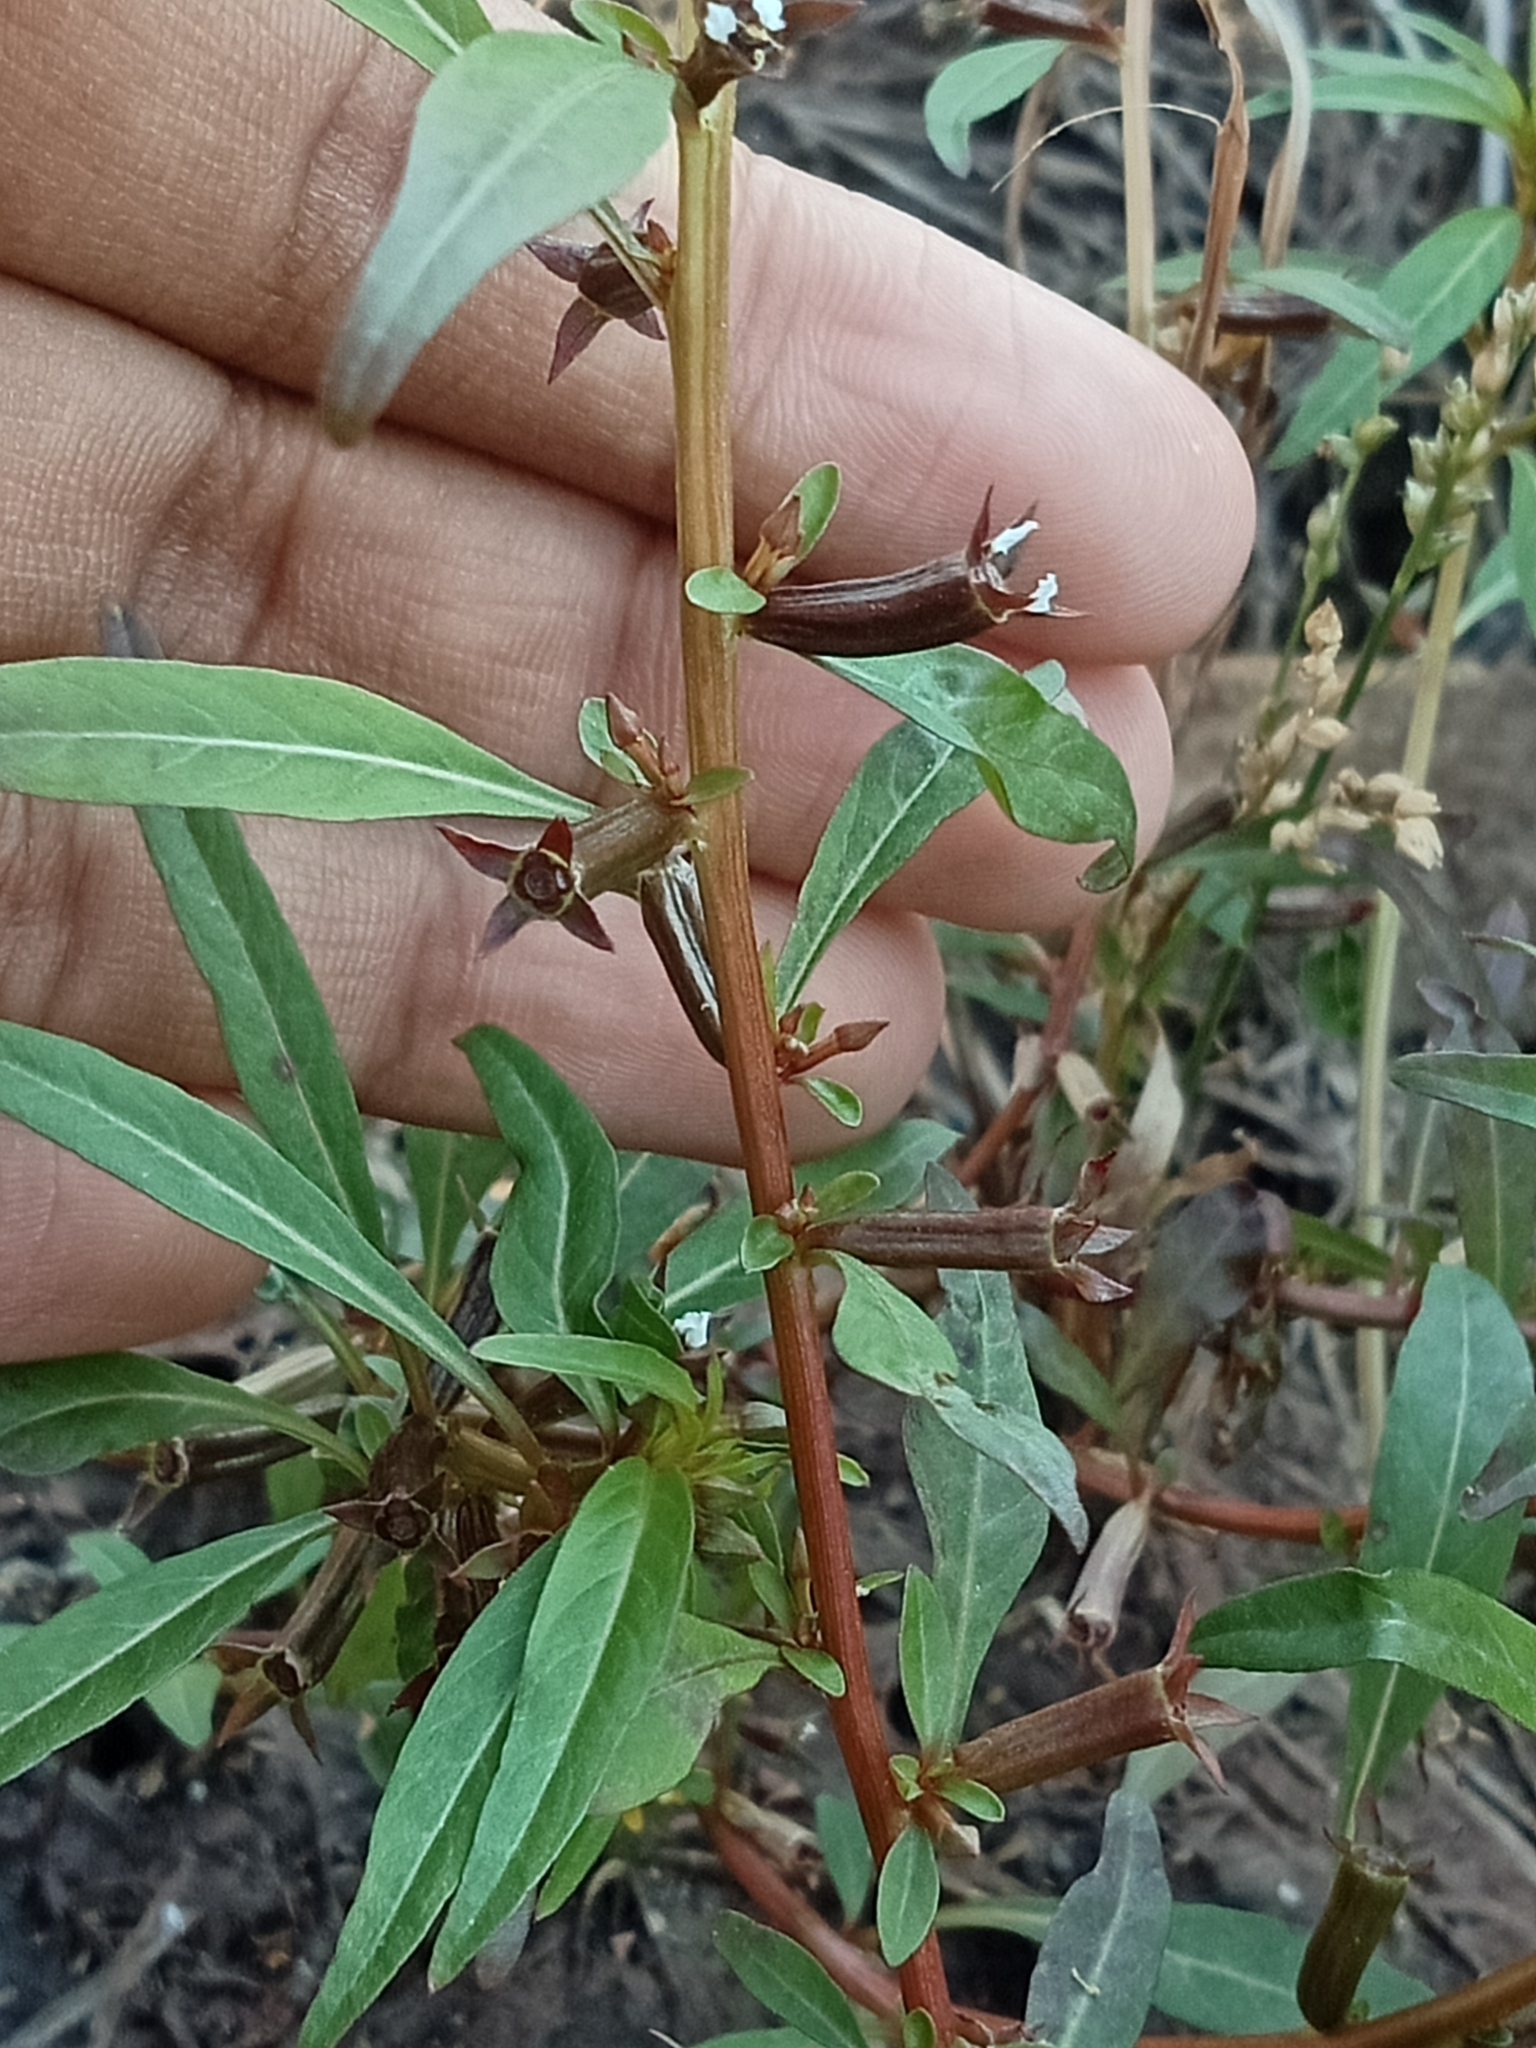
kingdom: Plantae
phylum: Tracheophyta
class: Magnoliopsida
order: Myrtales
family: Onagraceae
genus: Ludwigia
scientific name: Ludwigia perennis
